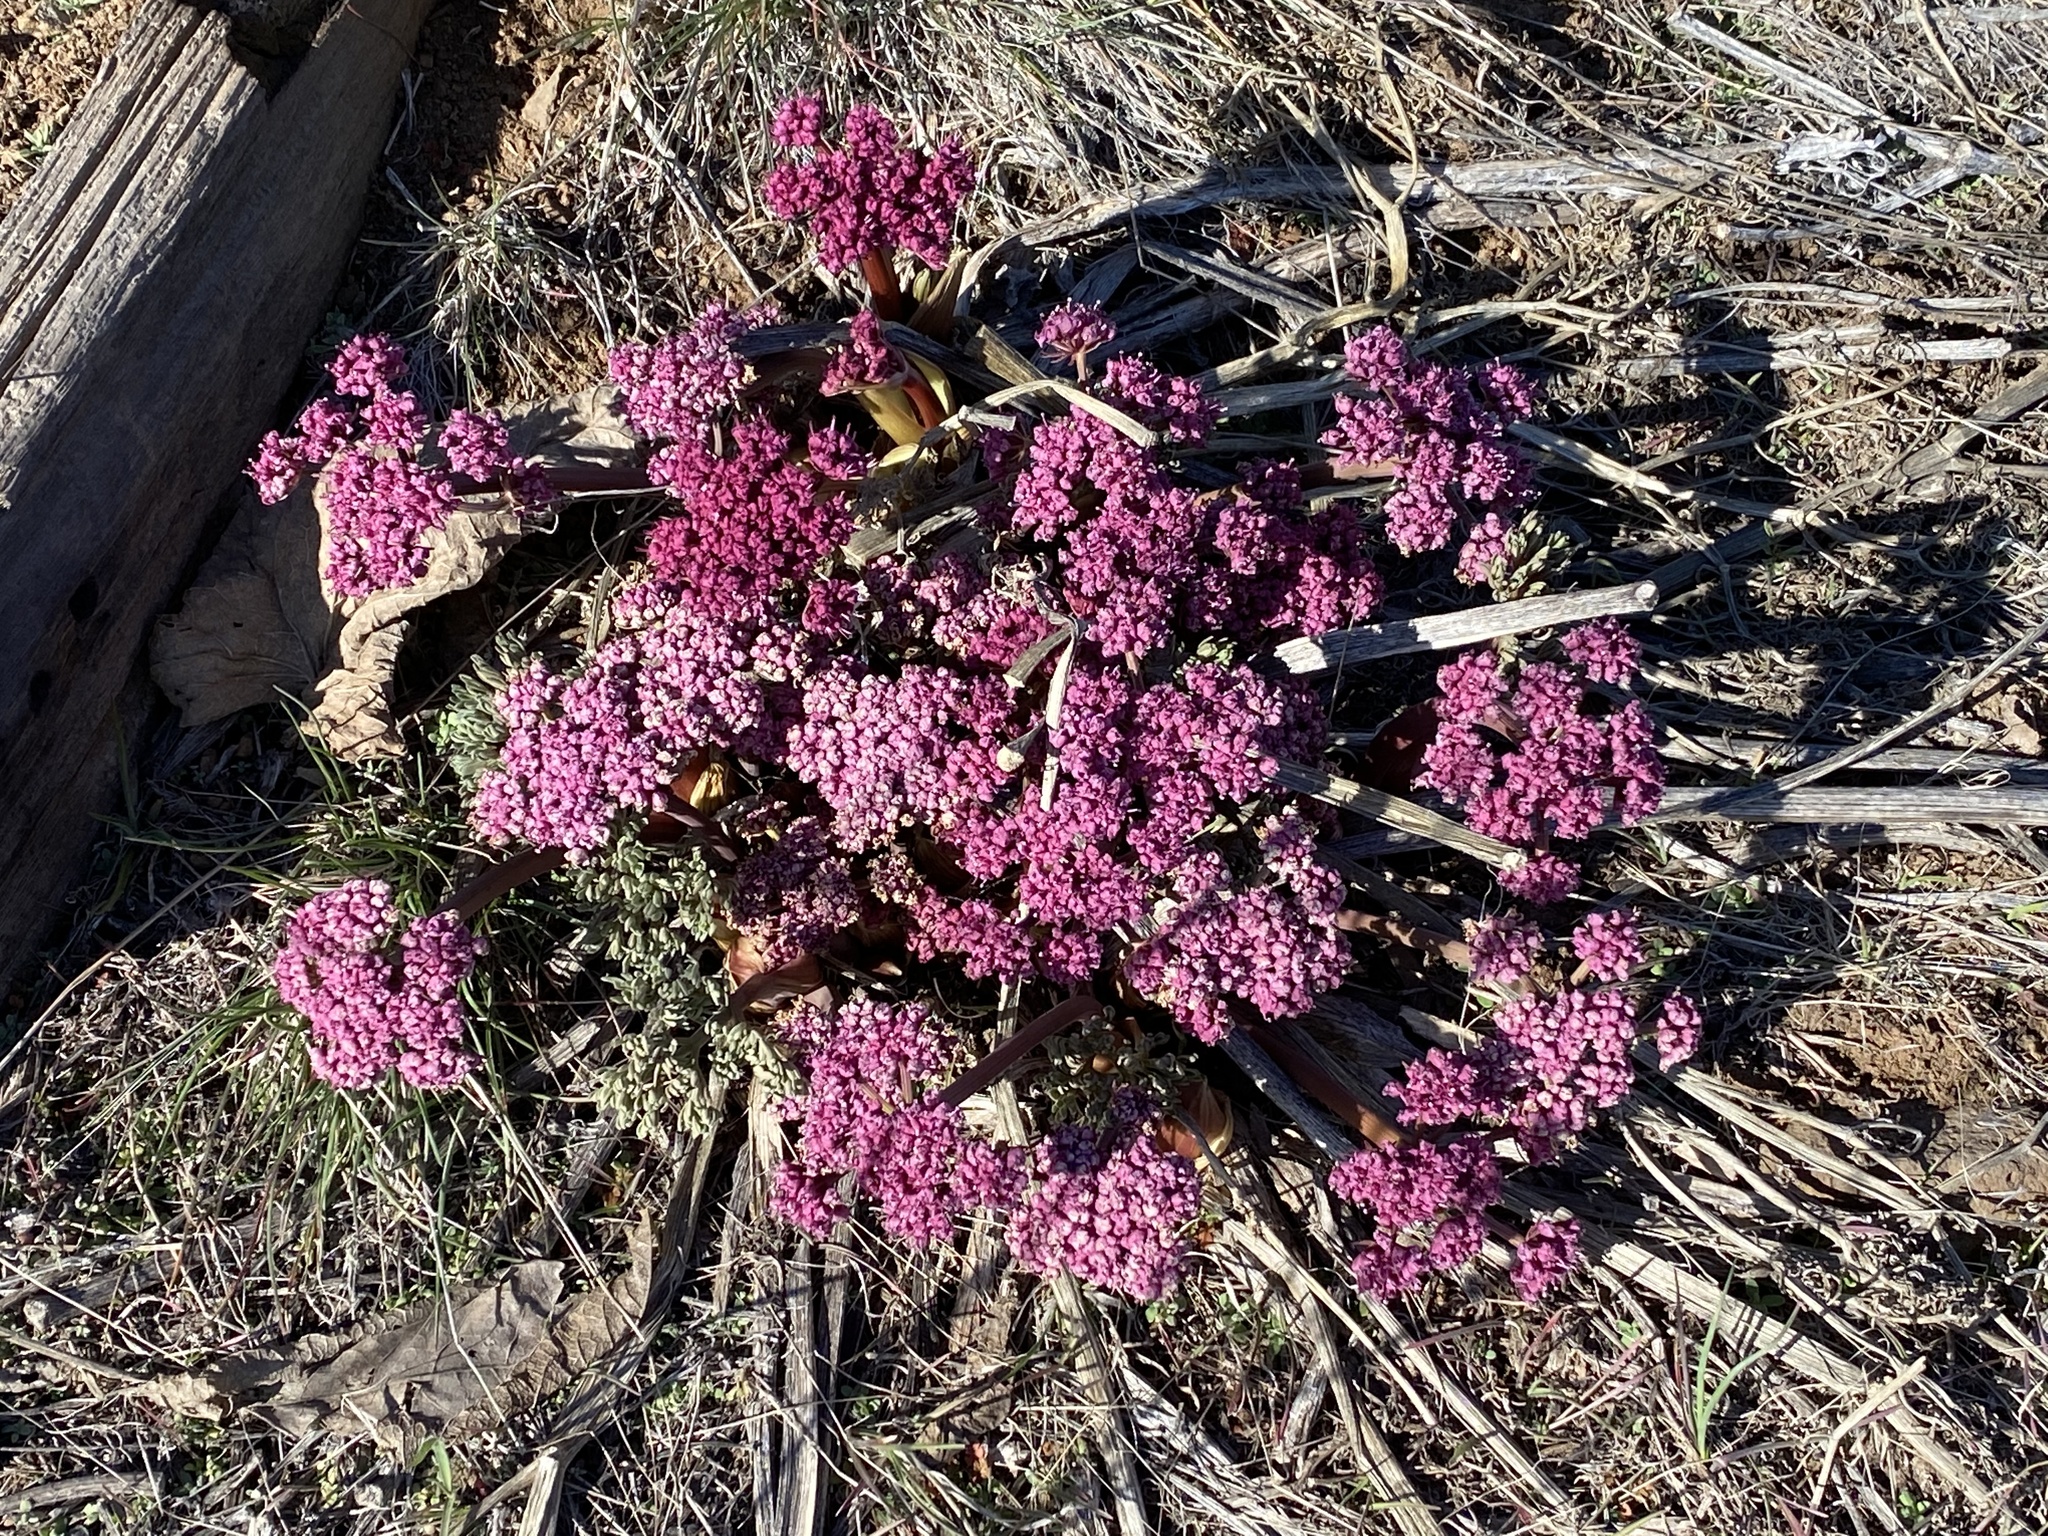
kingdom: Plantae
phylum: Tracheophyta
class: Magnoliopsida
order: Apiales
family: Apiaceae
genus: Lomatium
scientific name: Lomatium columbianum
